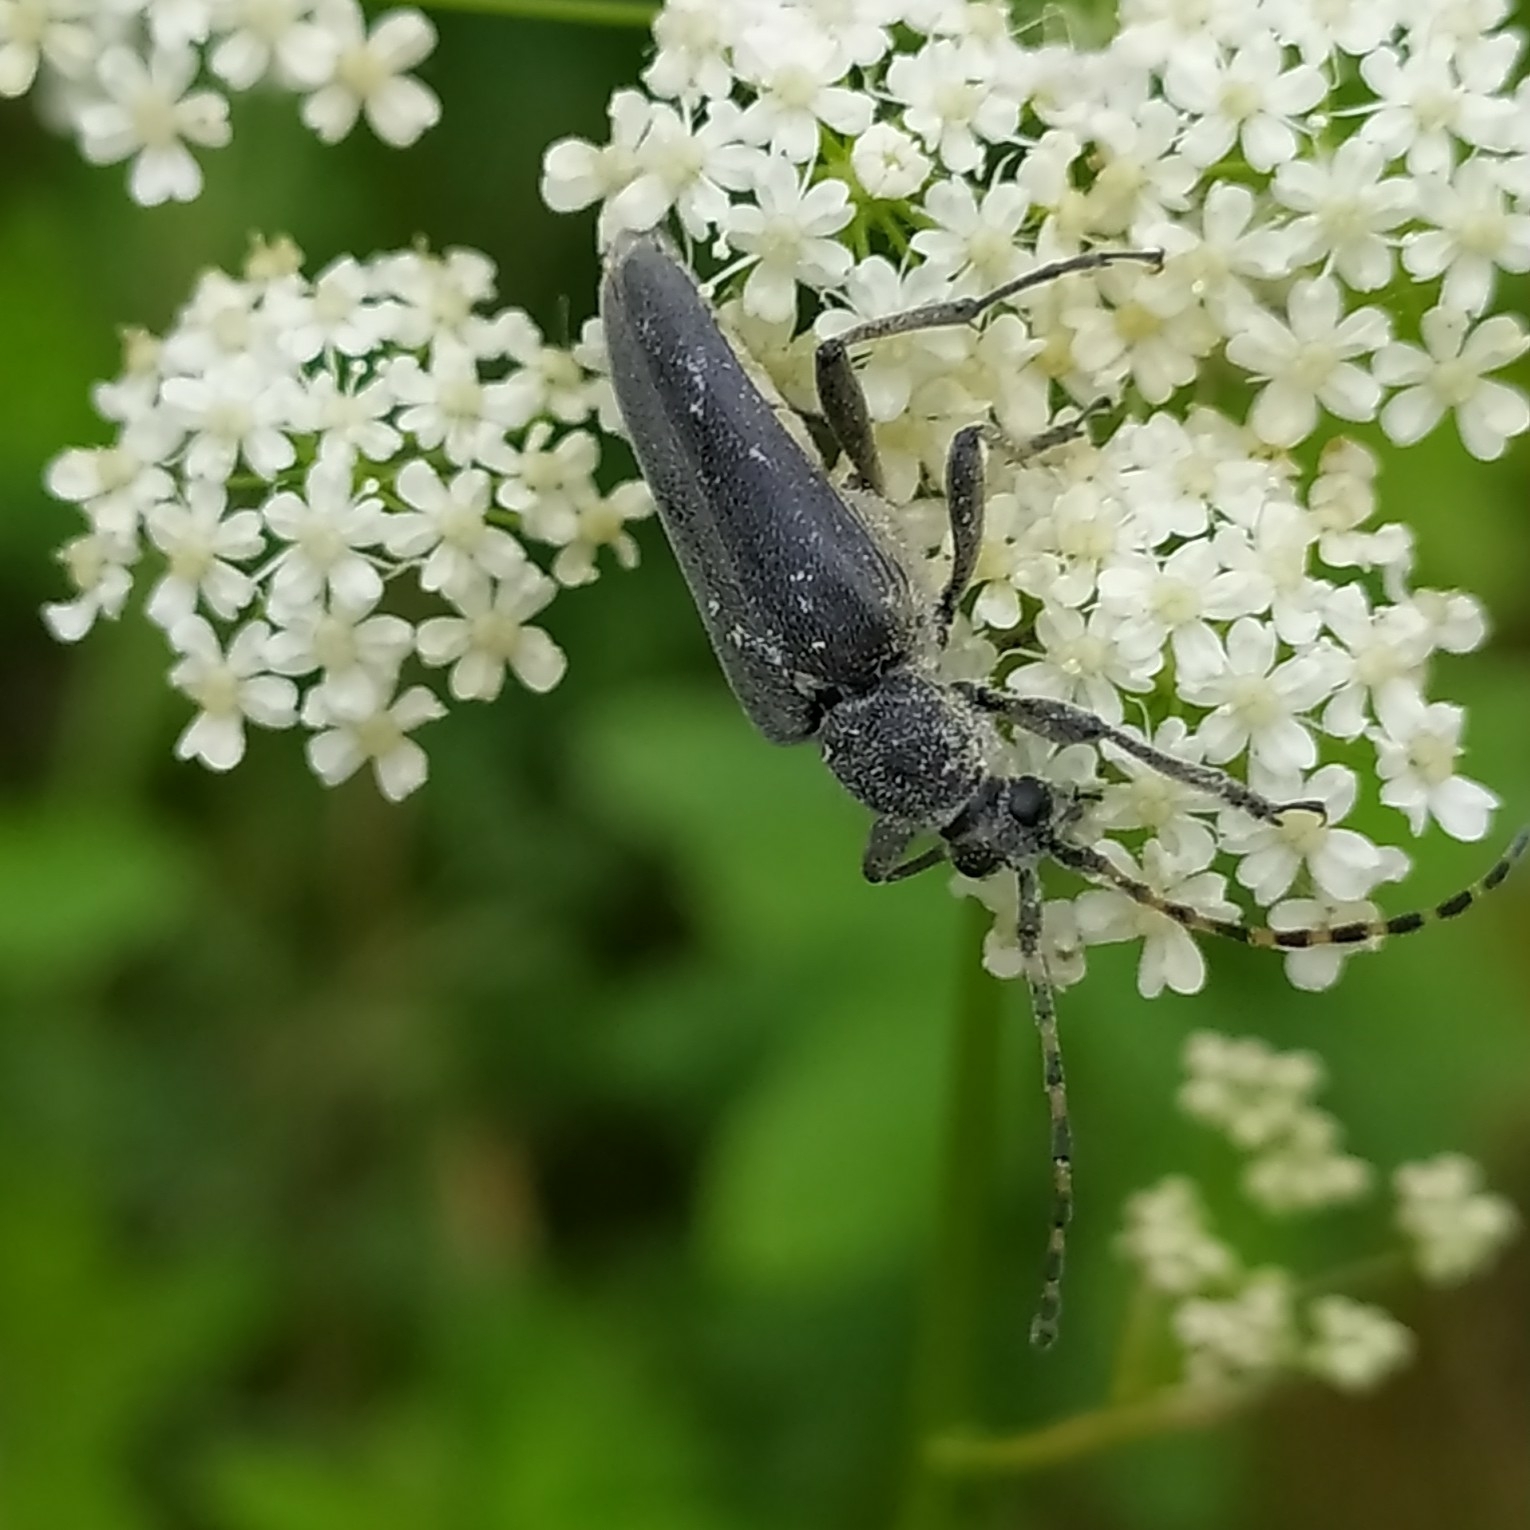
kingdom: Animalia
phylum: Arthropoda
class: Insecta
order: Coleoptera
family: Cerambycidae
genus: Lepturobosca
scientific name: Lepturobosca virens
